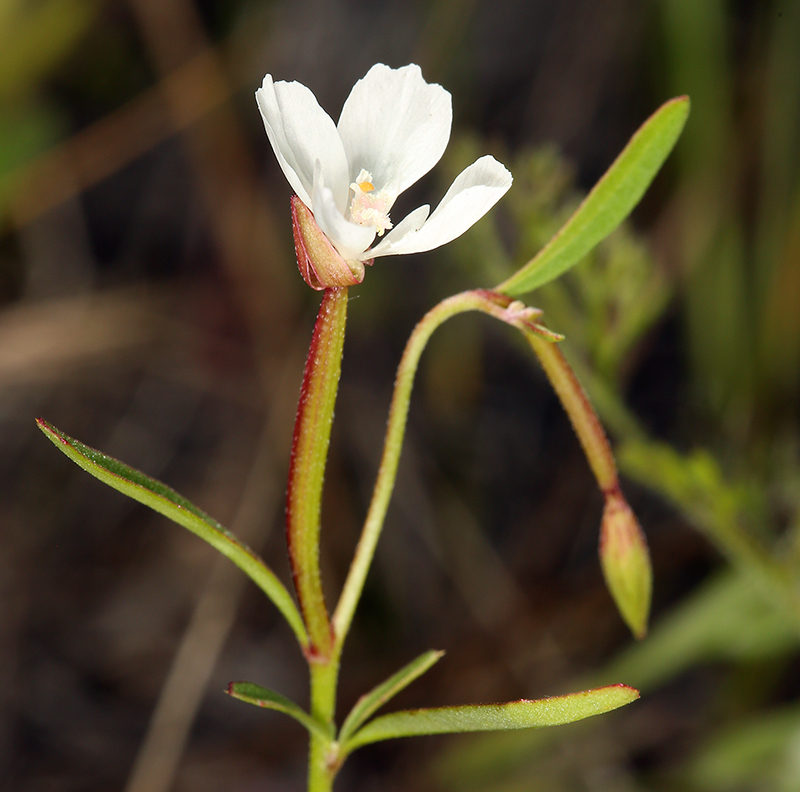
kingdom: Plantae
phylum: Tracheophyta
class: Magnoliopsida
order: Myrtales
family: Onagraceae
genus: Clarkia
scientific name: Clarkia epilobioides
